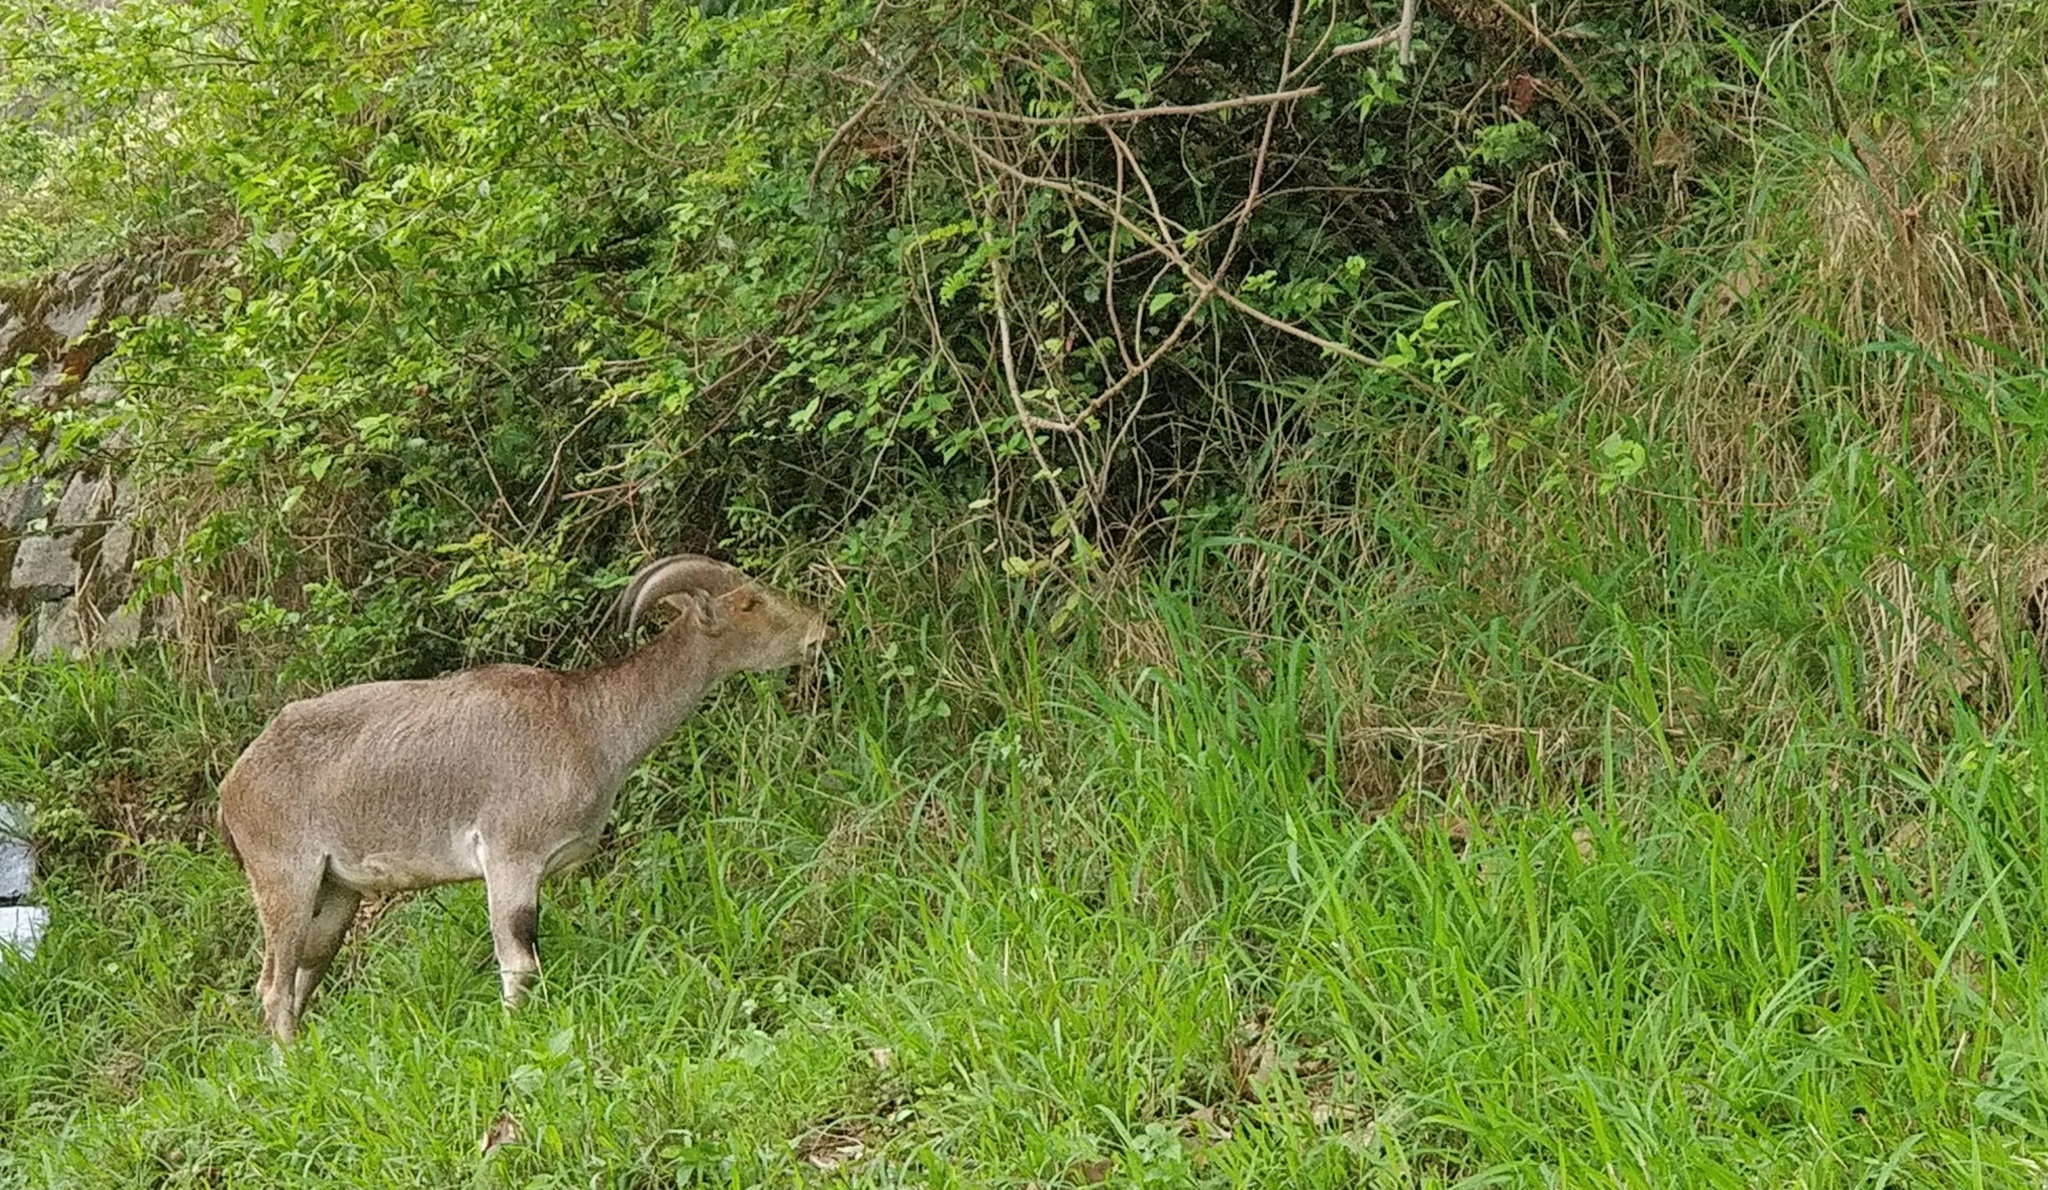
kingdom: Animalia
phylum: Chordata
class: Mammalia
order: Artiodactyla
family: Bovidae
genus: Hemitragus
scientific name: Hemitragus hylocrius
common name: Nilgiri tahr
